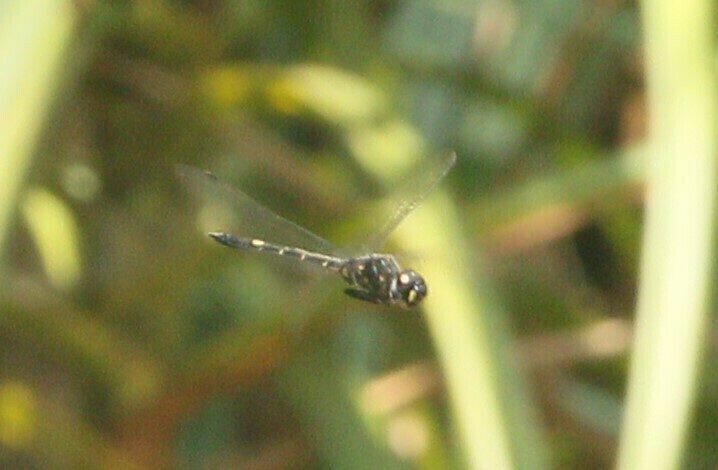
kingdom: Animalia
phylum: Arthropoda
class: Insecta
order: Odonata
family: Libellulidae
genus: Zygonyx
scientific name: Zygonyx iris
